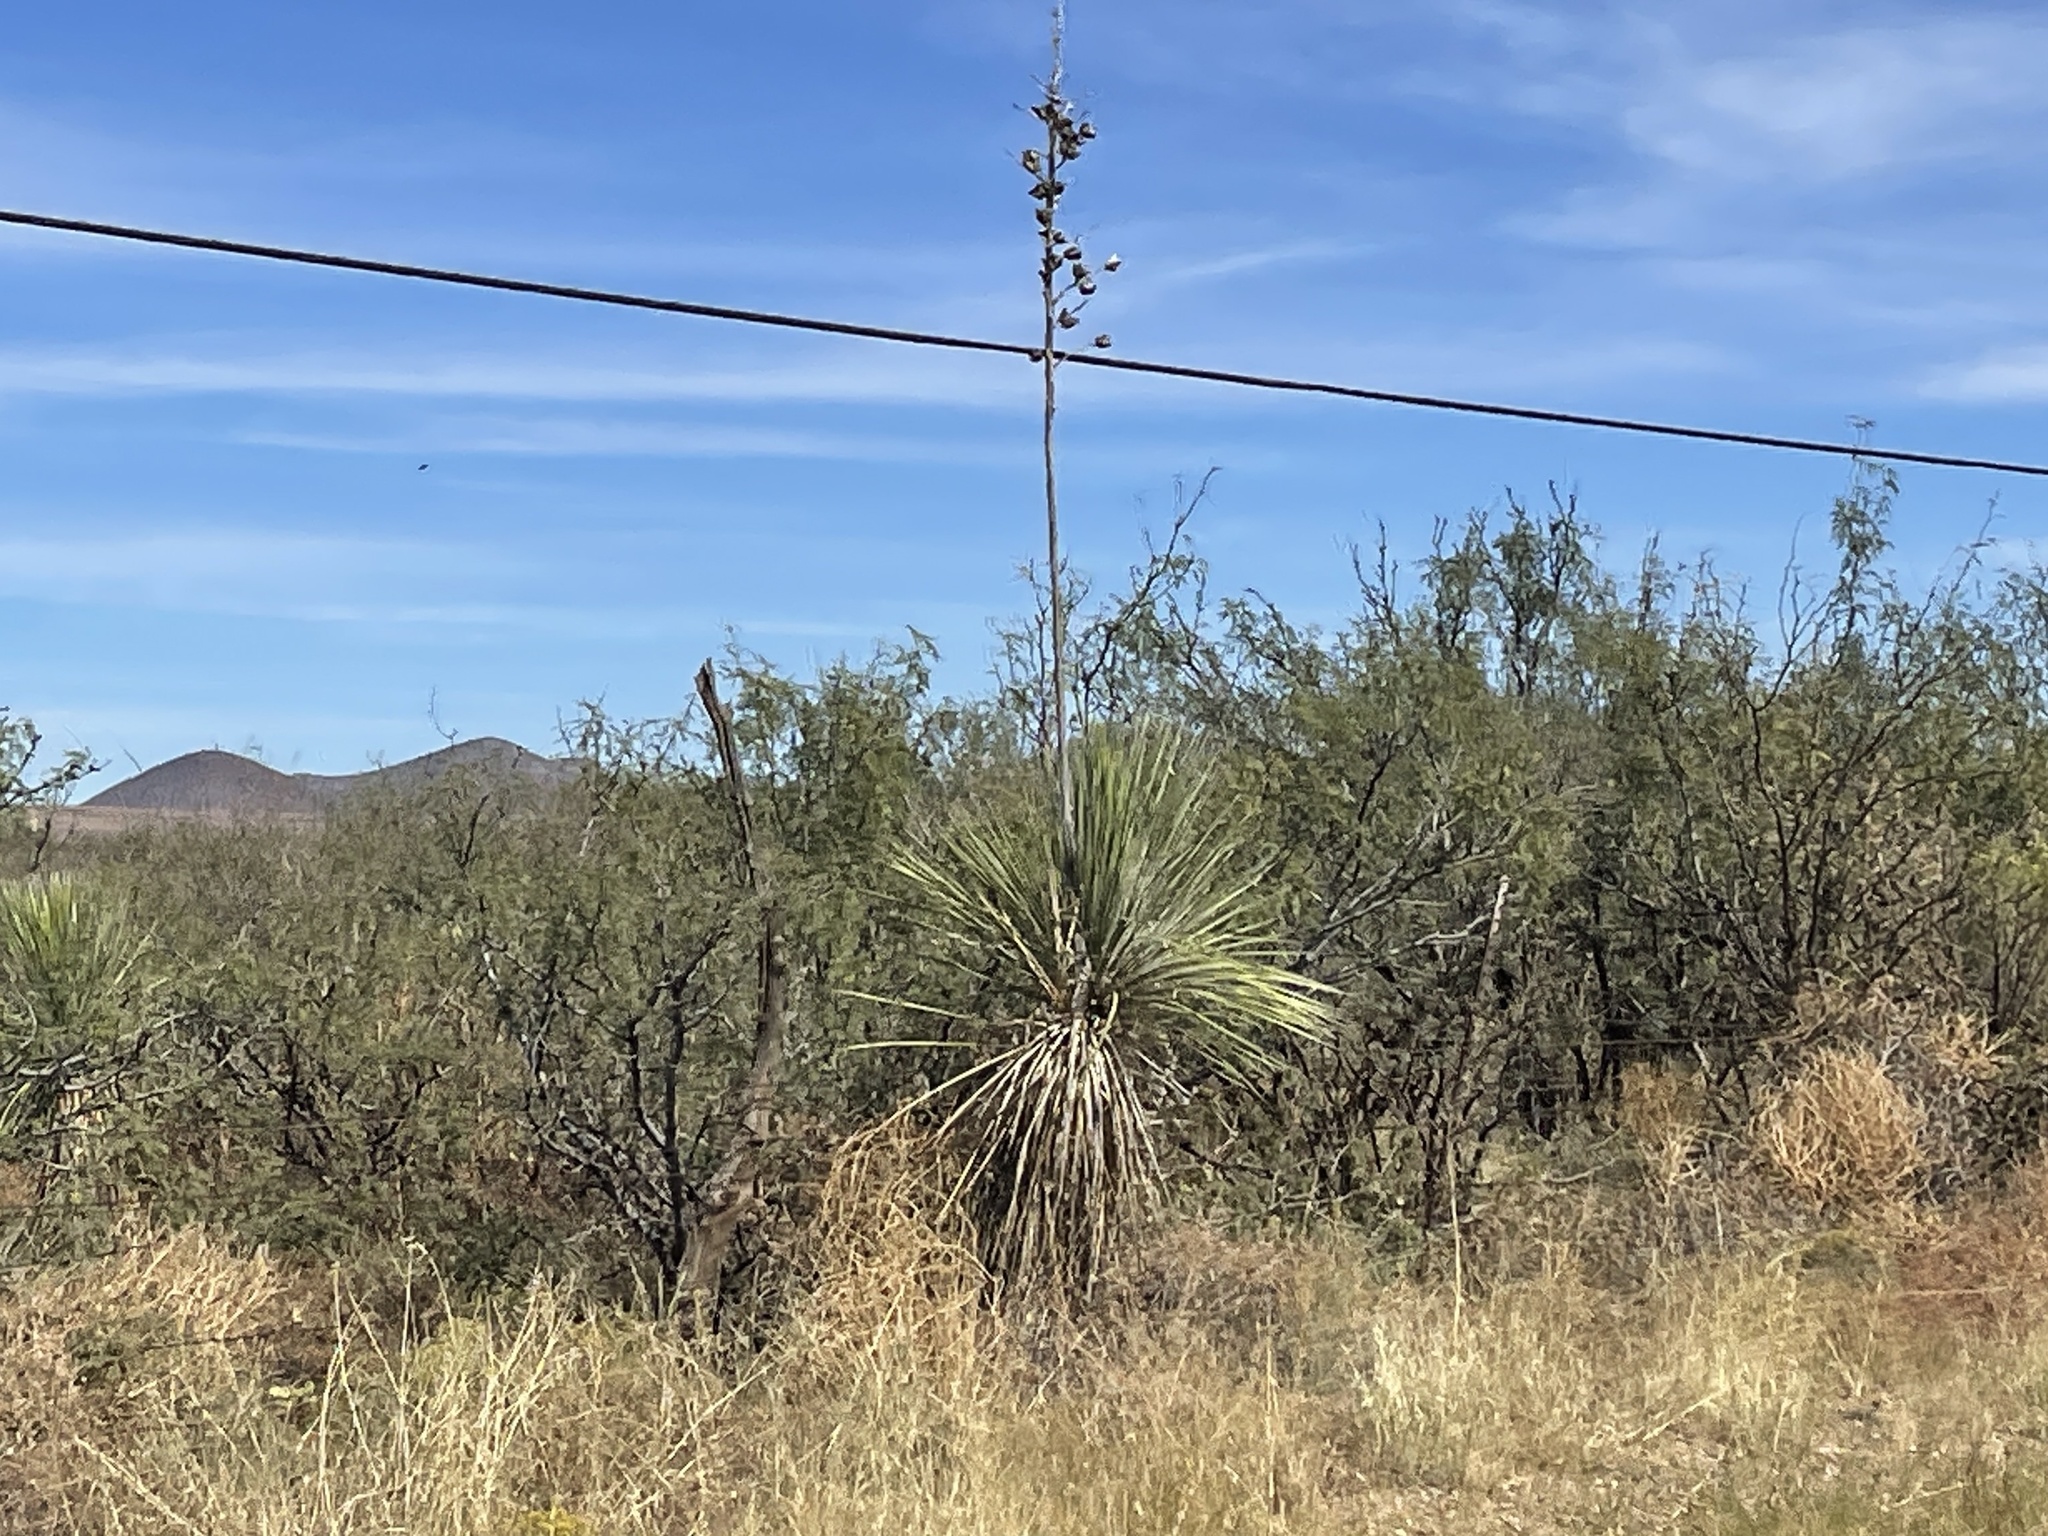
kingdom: Plantae
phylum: Tracheophyta
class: Liliopsida
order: Asparagales
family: Asparagaceae
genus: Yucca
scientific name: Yucca elata
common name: Palmella
